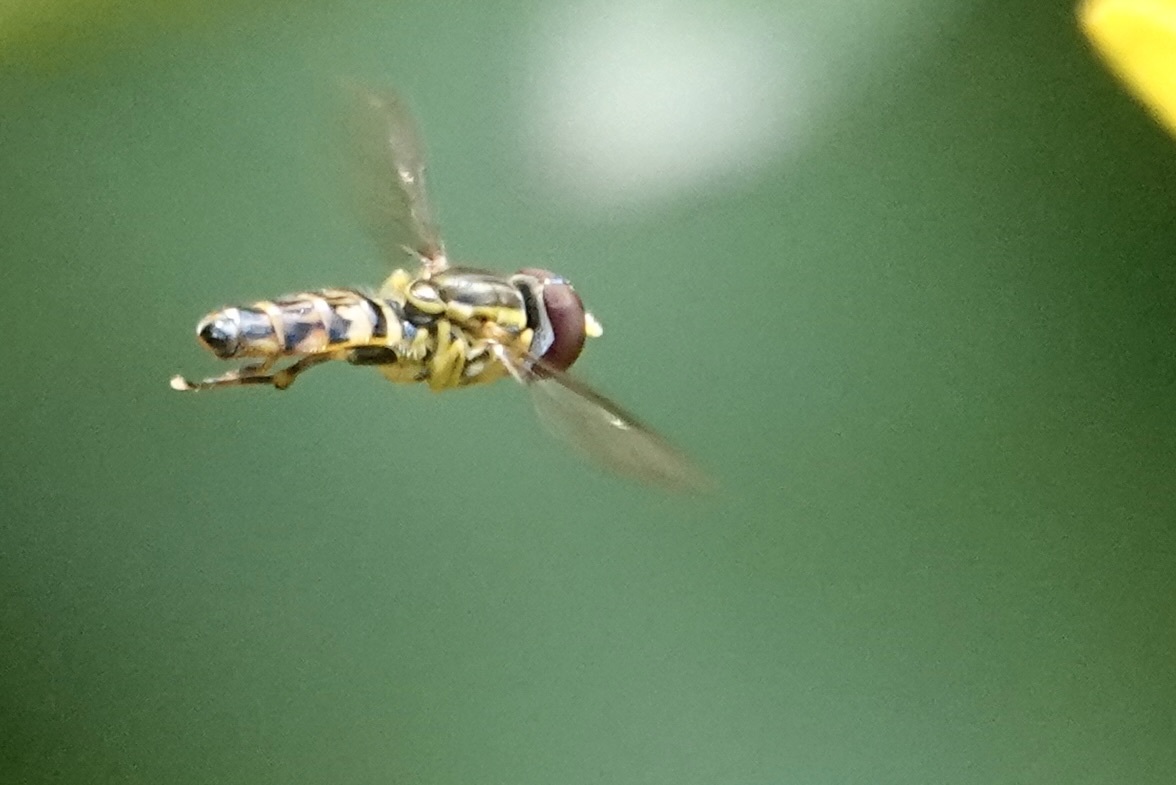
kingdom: Animalia
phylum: Arthropoda
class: Insecta
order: Diptera
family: Syrphidae
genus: Toxomerus
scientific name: Toxomerus geminatus
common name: Eastern calligrapher
